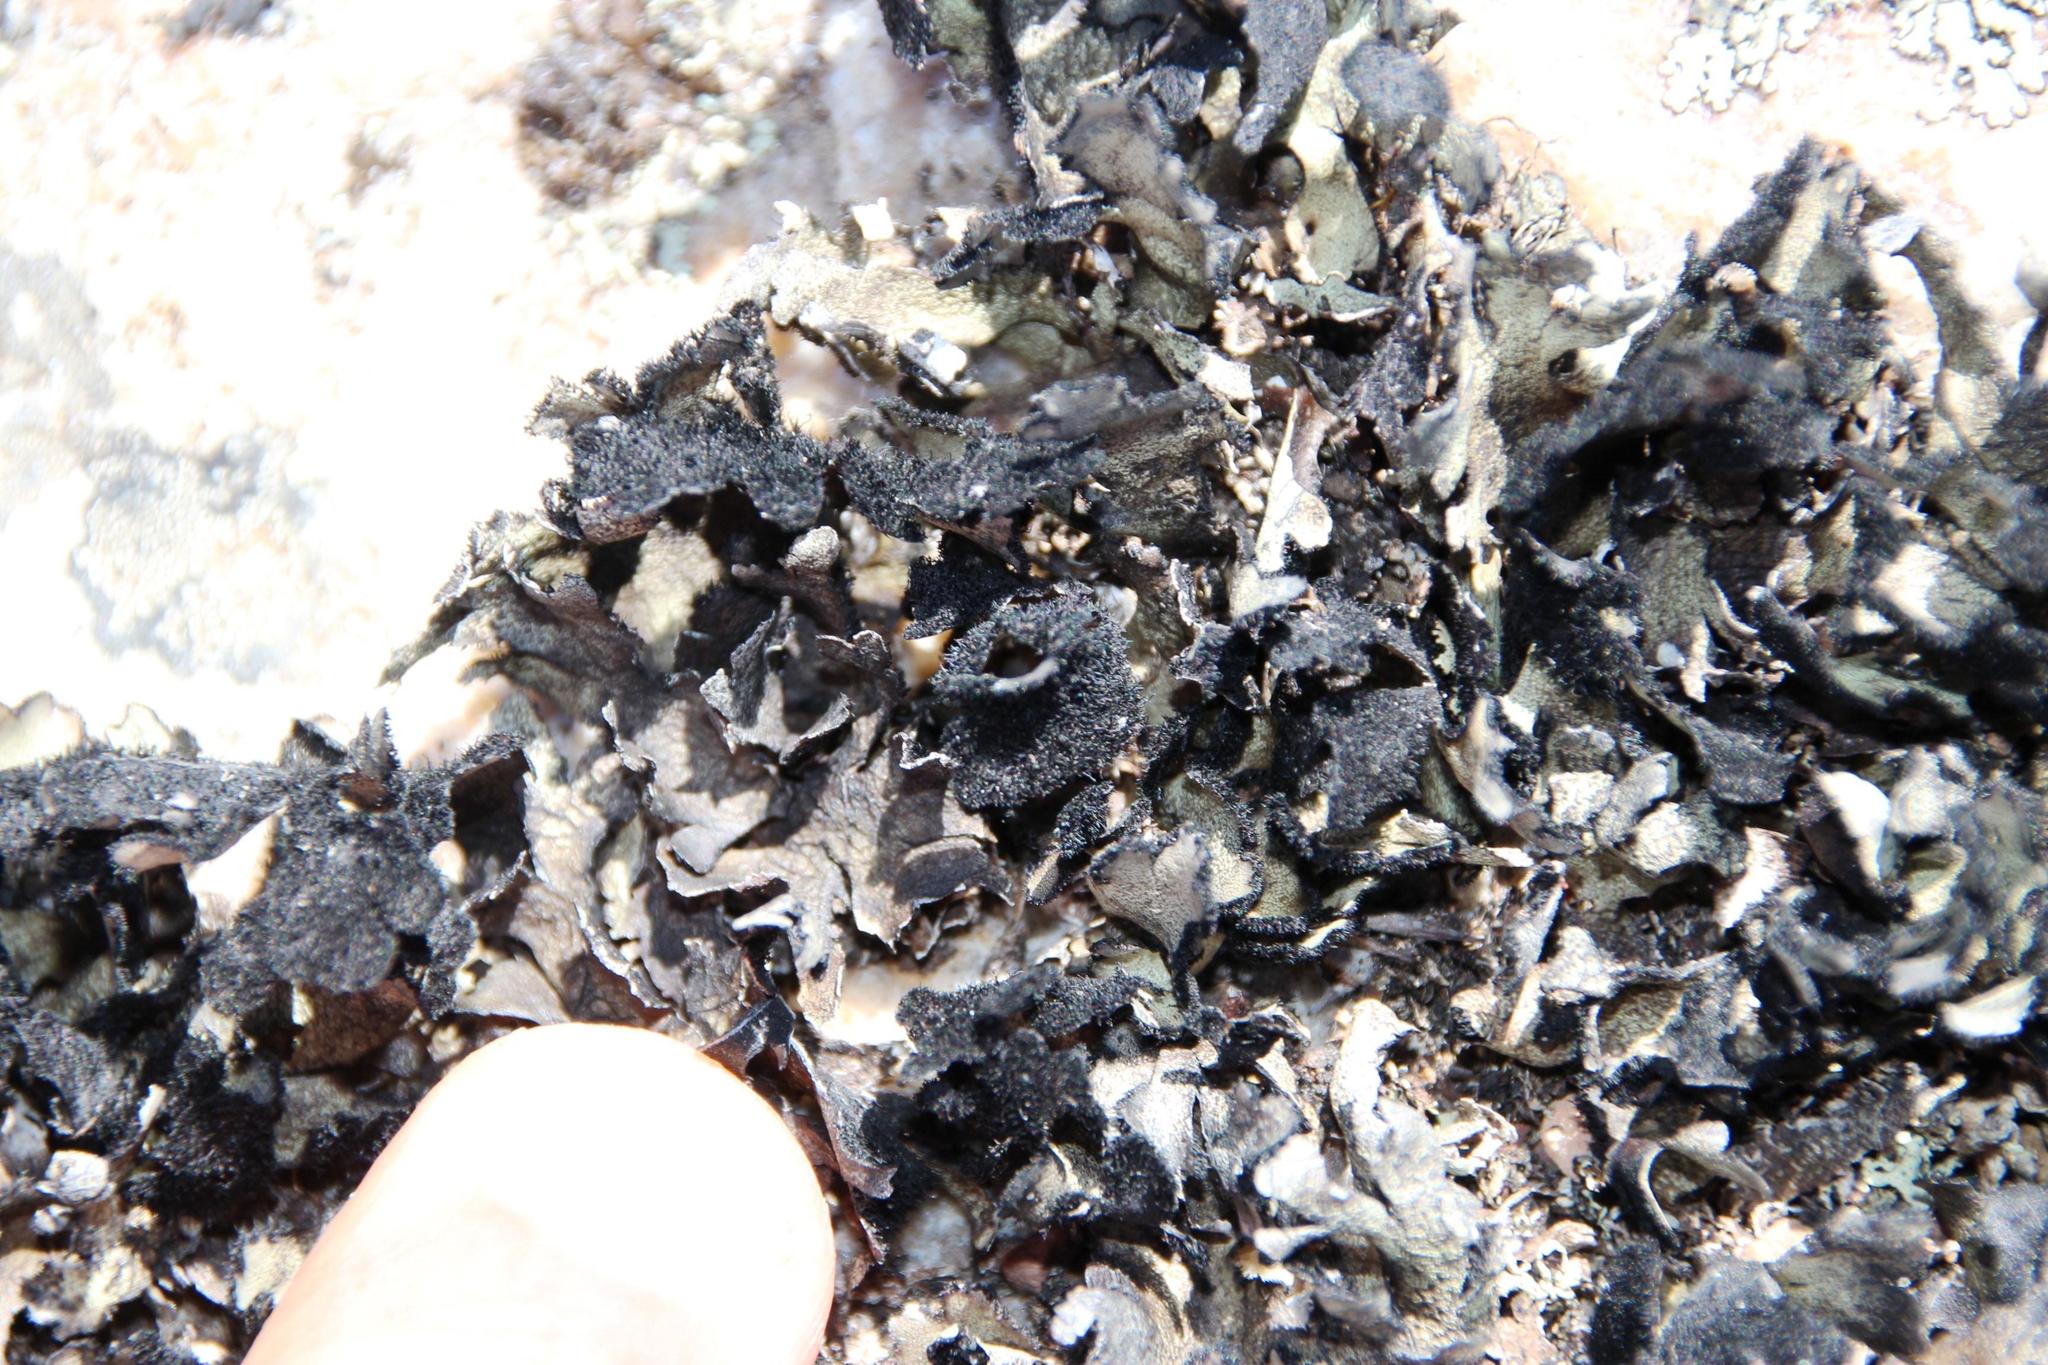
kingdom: Fungi
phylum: Ascomycota
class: Lecanoromycetes
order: Lecanorales
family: Parmeliaceae
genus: Xanthoparmelia
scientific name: Xanthoparmelia hottentotta
